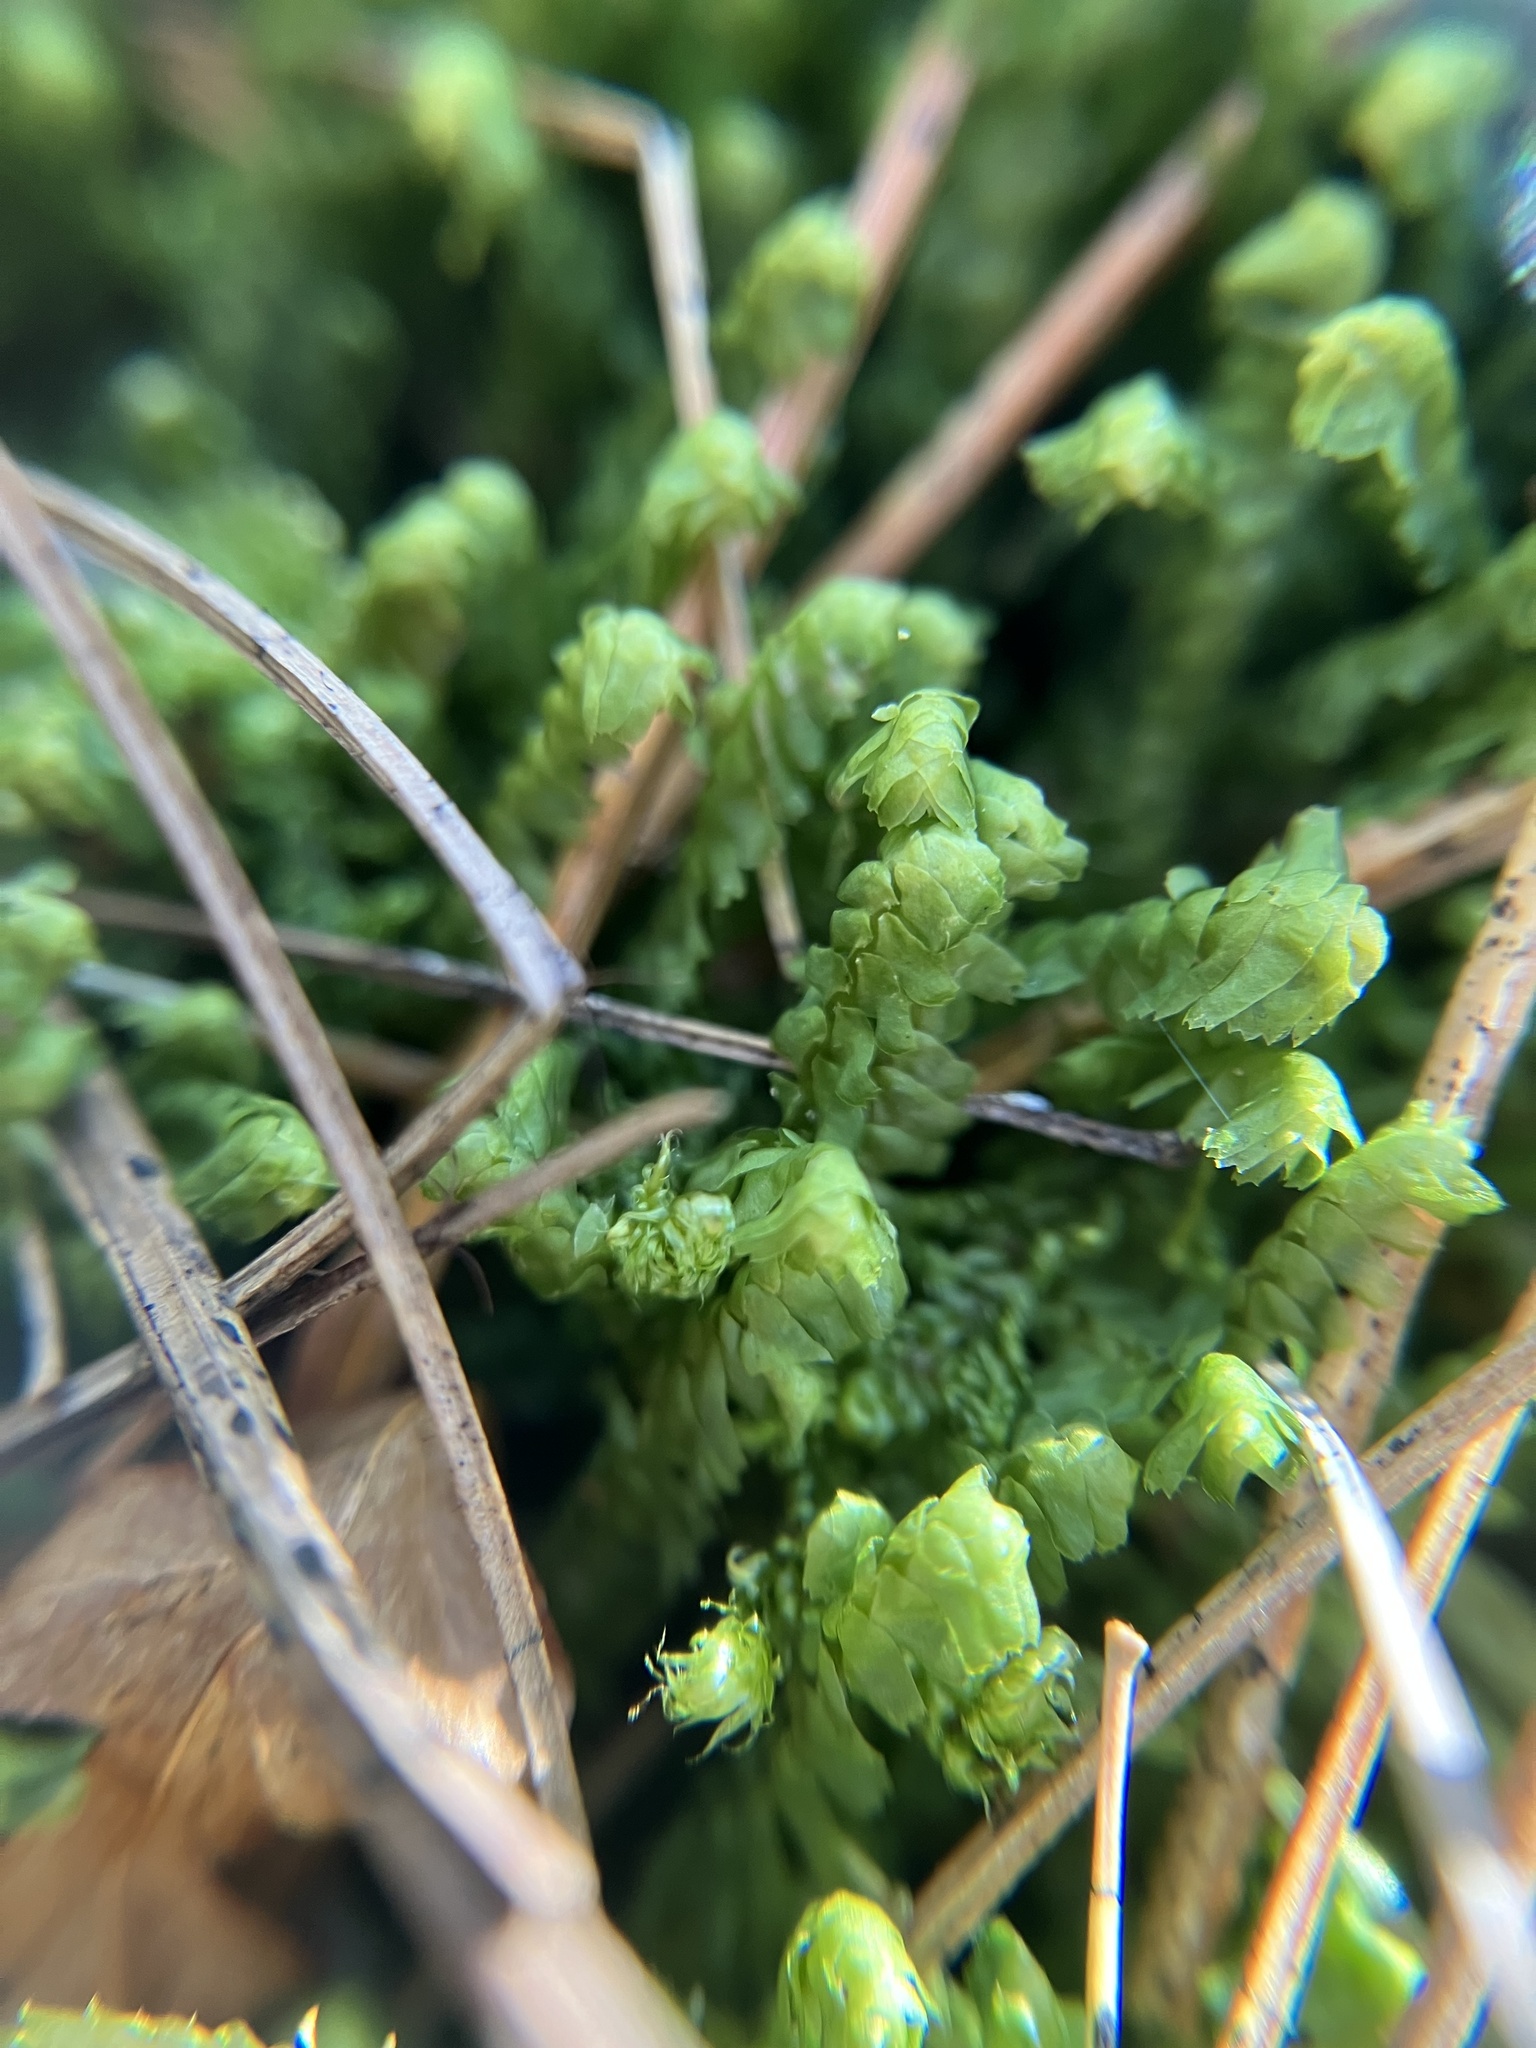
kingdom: Plantae
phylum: Marchantiophyta
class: Jungermanniopsida
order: Jungermanniales
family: Lepidoziaceae
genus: Bazzania
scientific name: Bazzania trilobata
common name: Three-lobed whipwort
